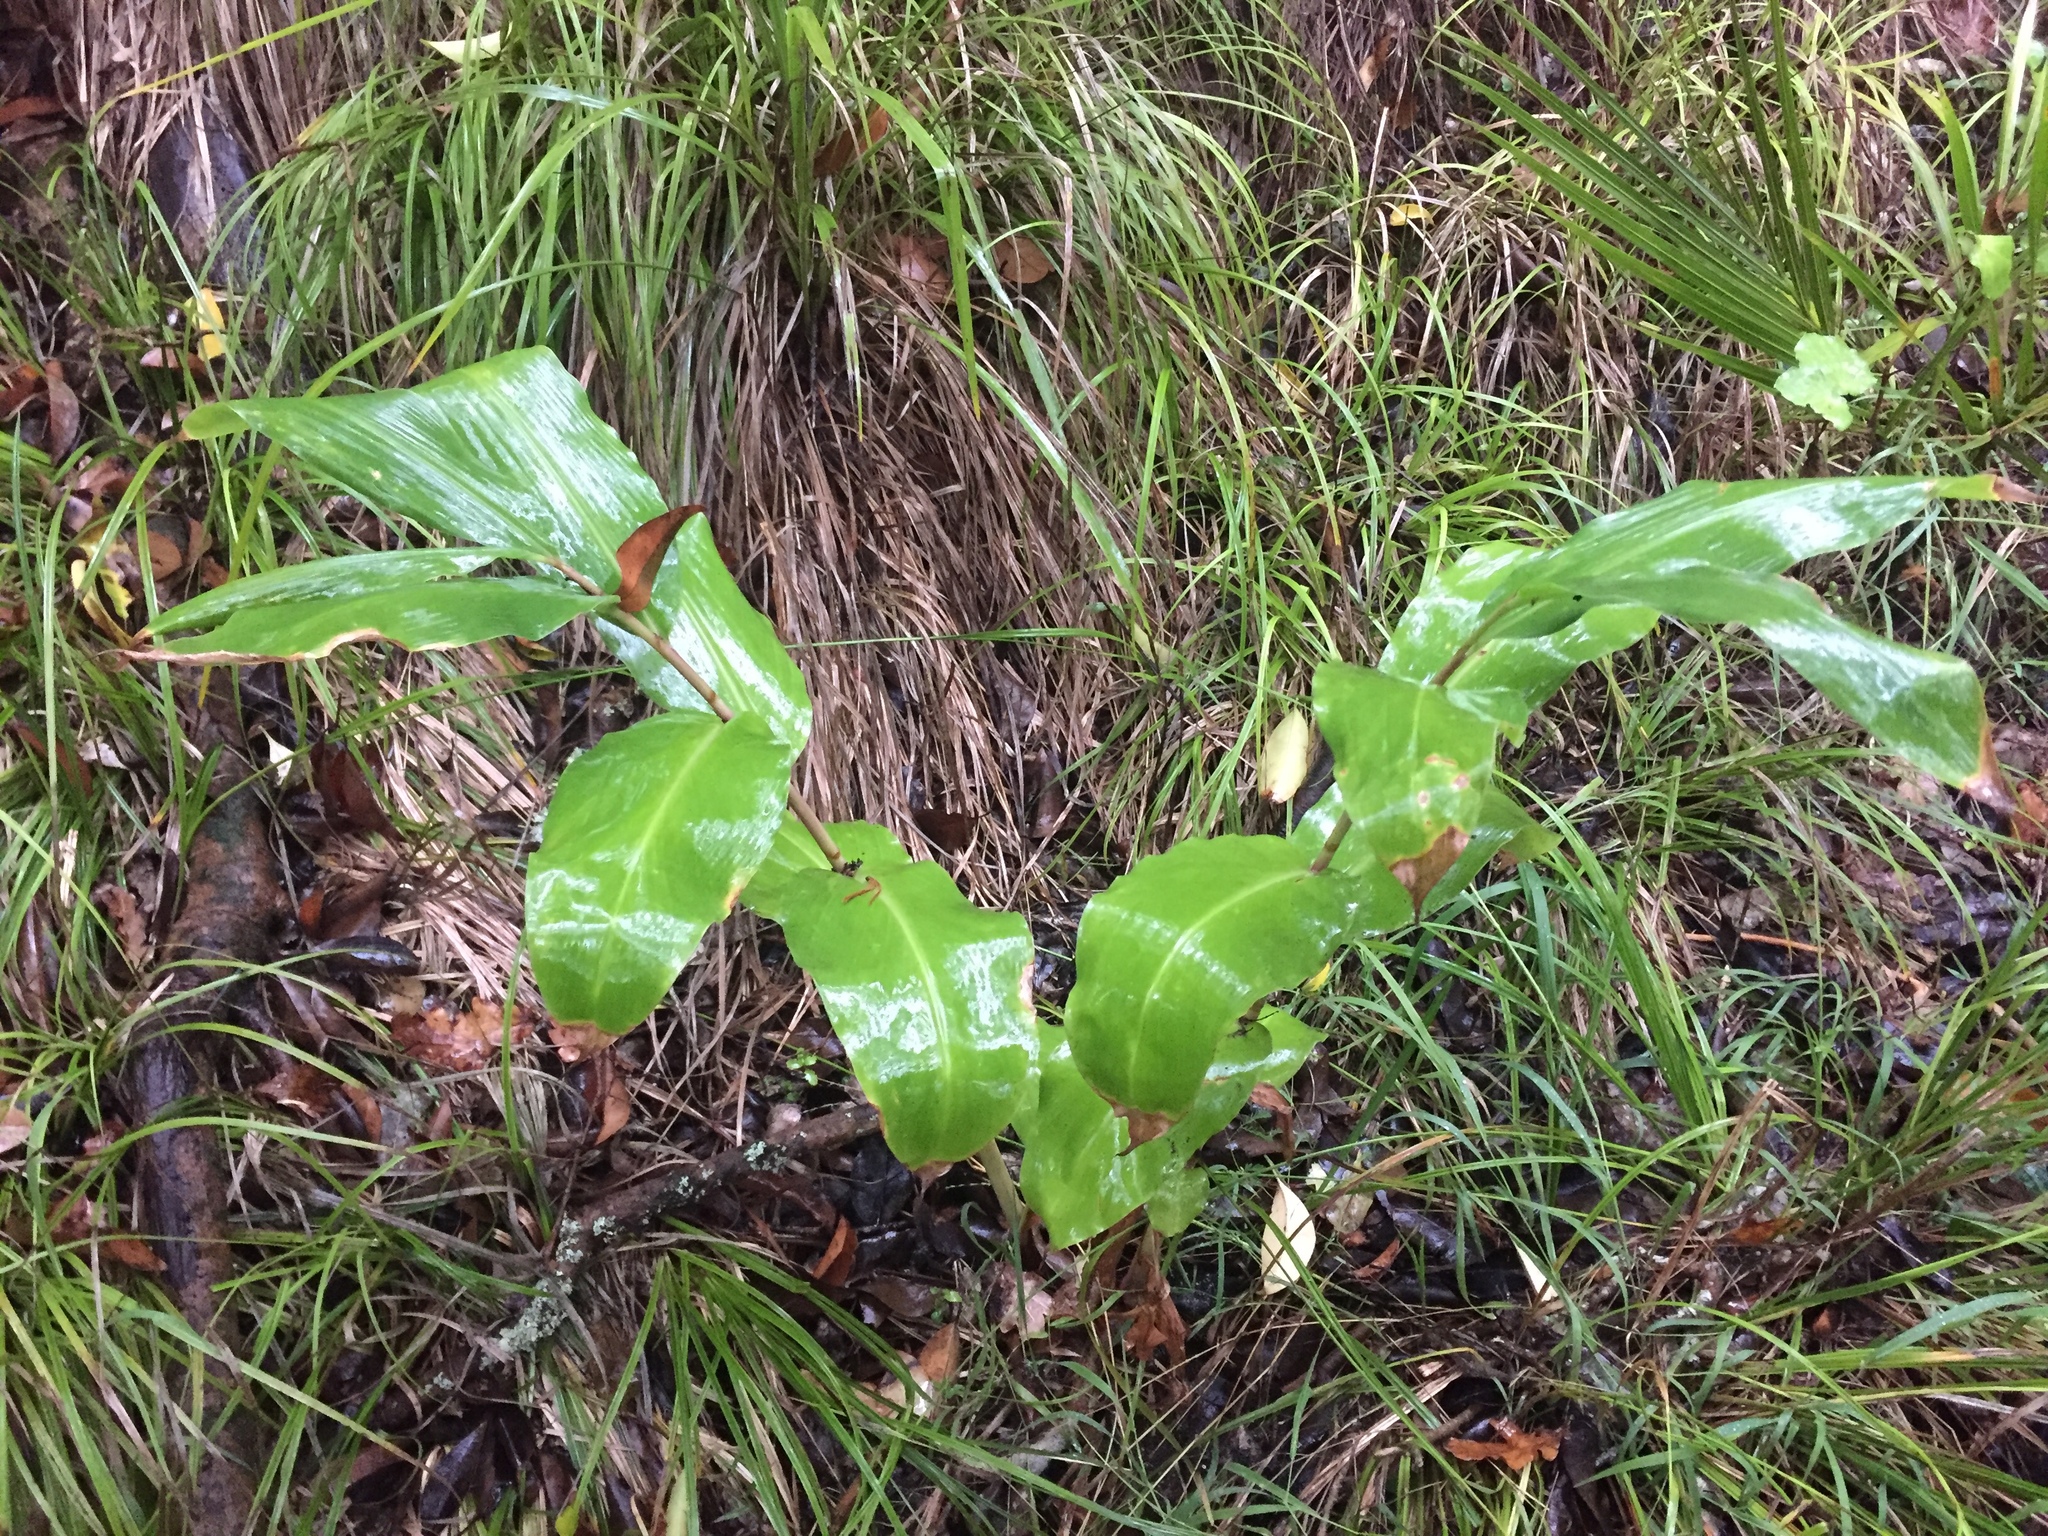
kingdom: Plantae
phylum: Tracheophyta
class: Liliopsida
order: Zingiberales
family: Zingiberaceae
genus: Hedychium
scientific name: Hedychium gardnerianum
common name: Himalayan ginger
